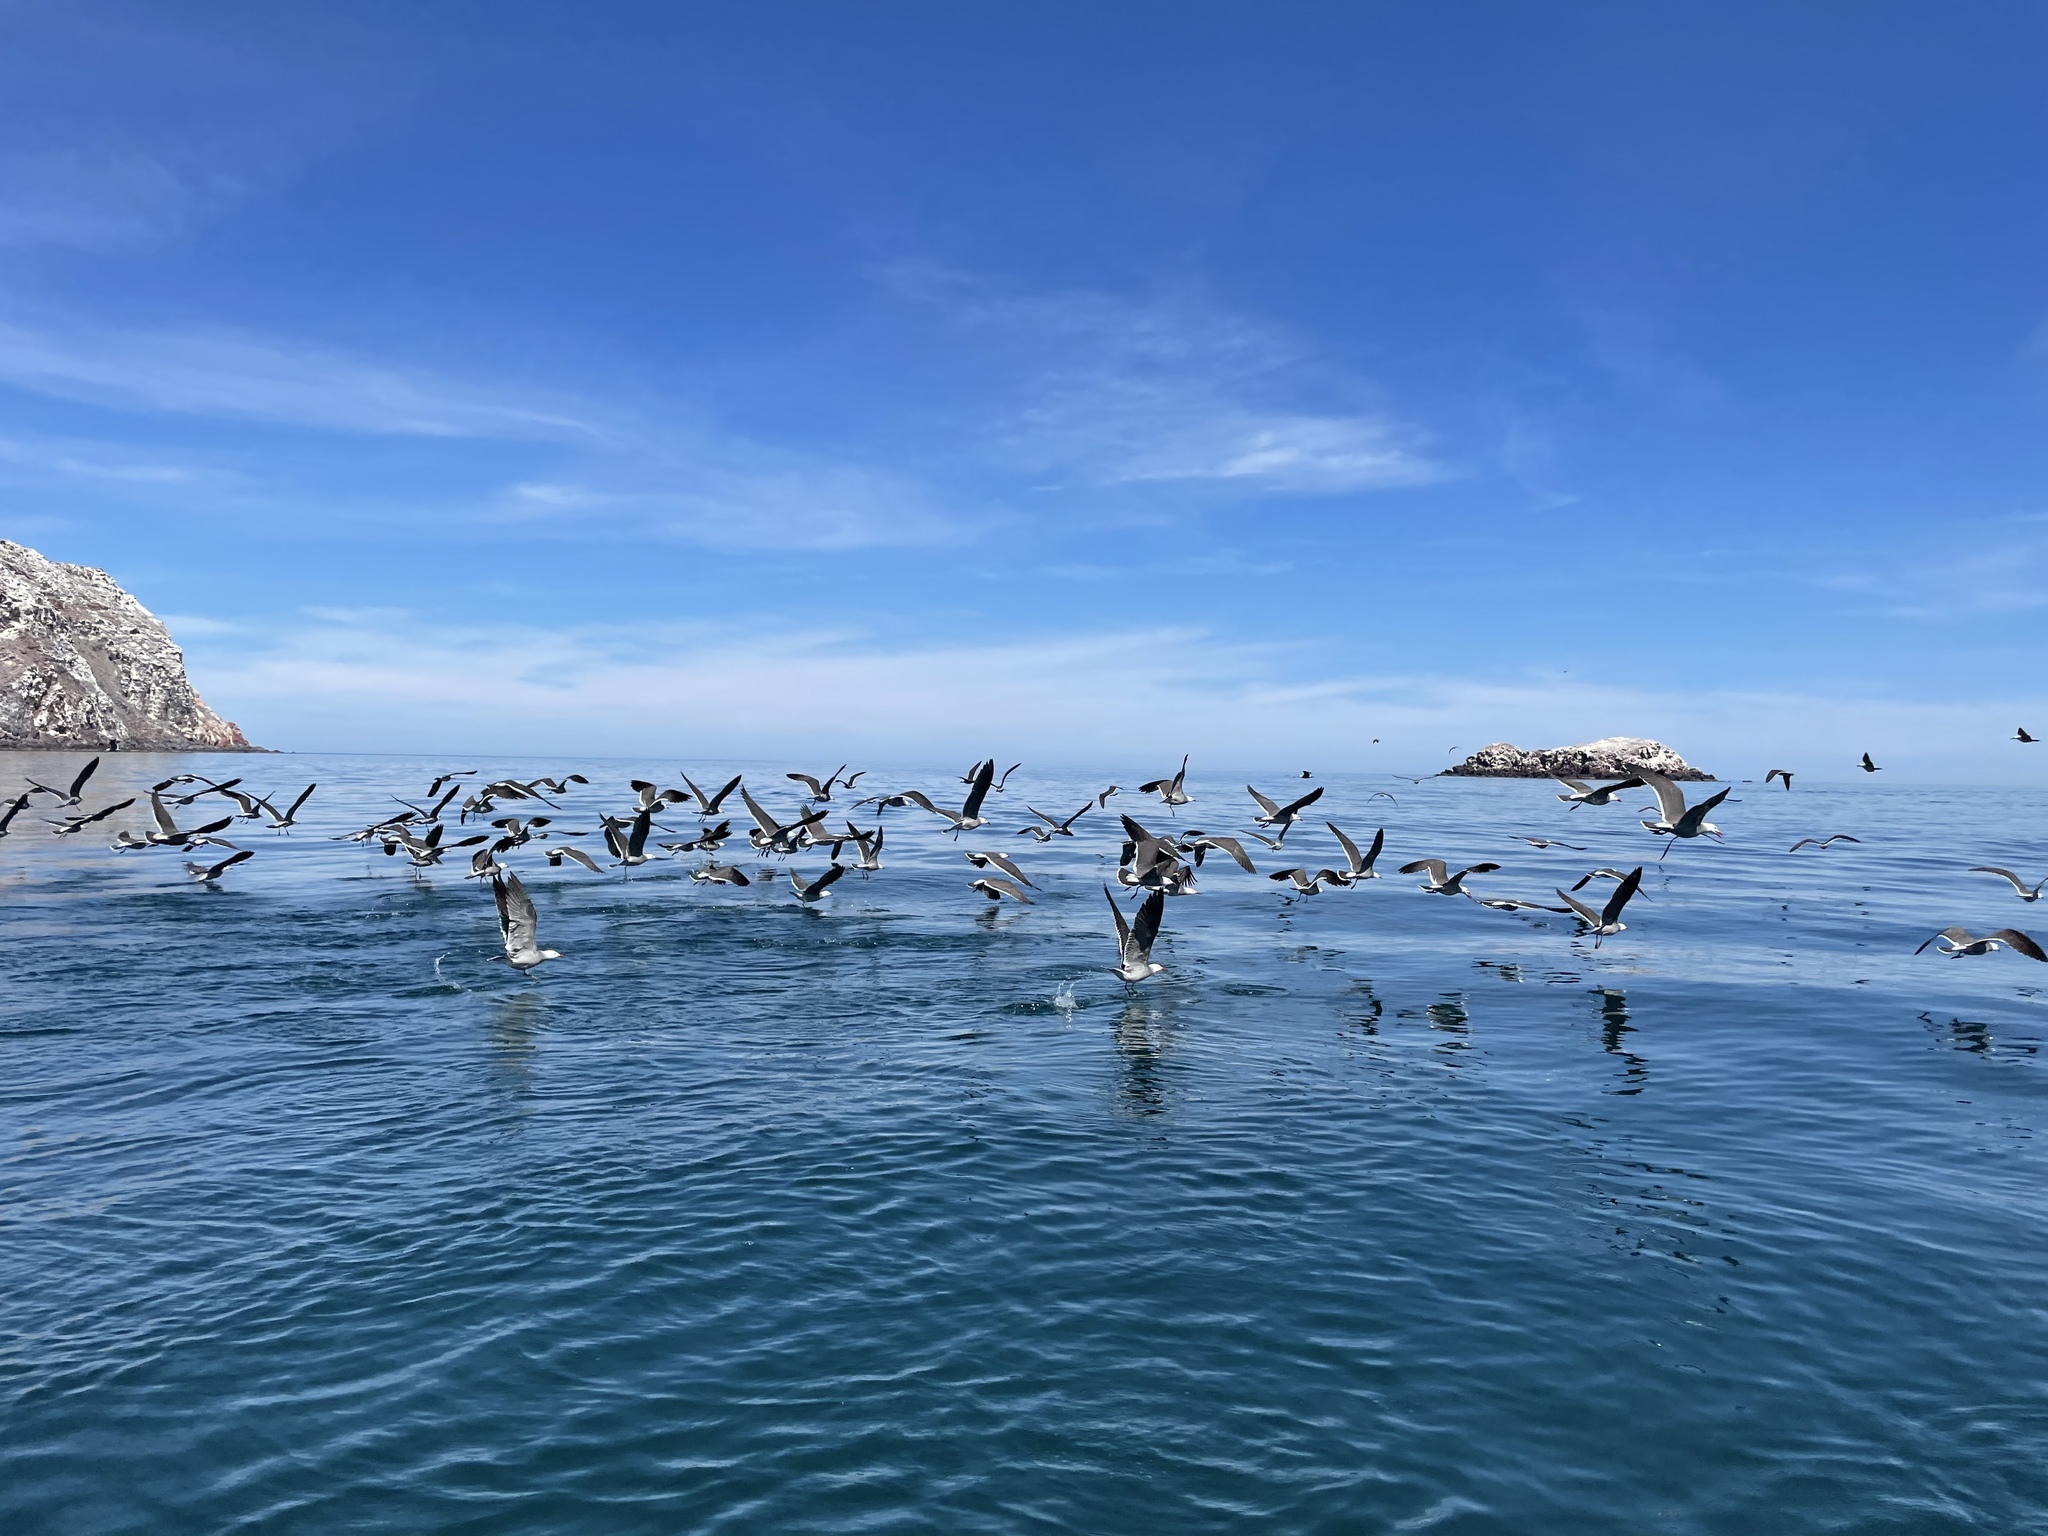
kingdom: Animalia
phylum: Chordata
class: Aves
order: Charadriiformes
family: Laridae
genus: Larus
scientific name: Larus heermanni
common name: Heermann's gull
